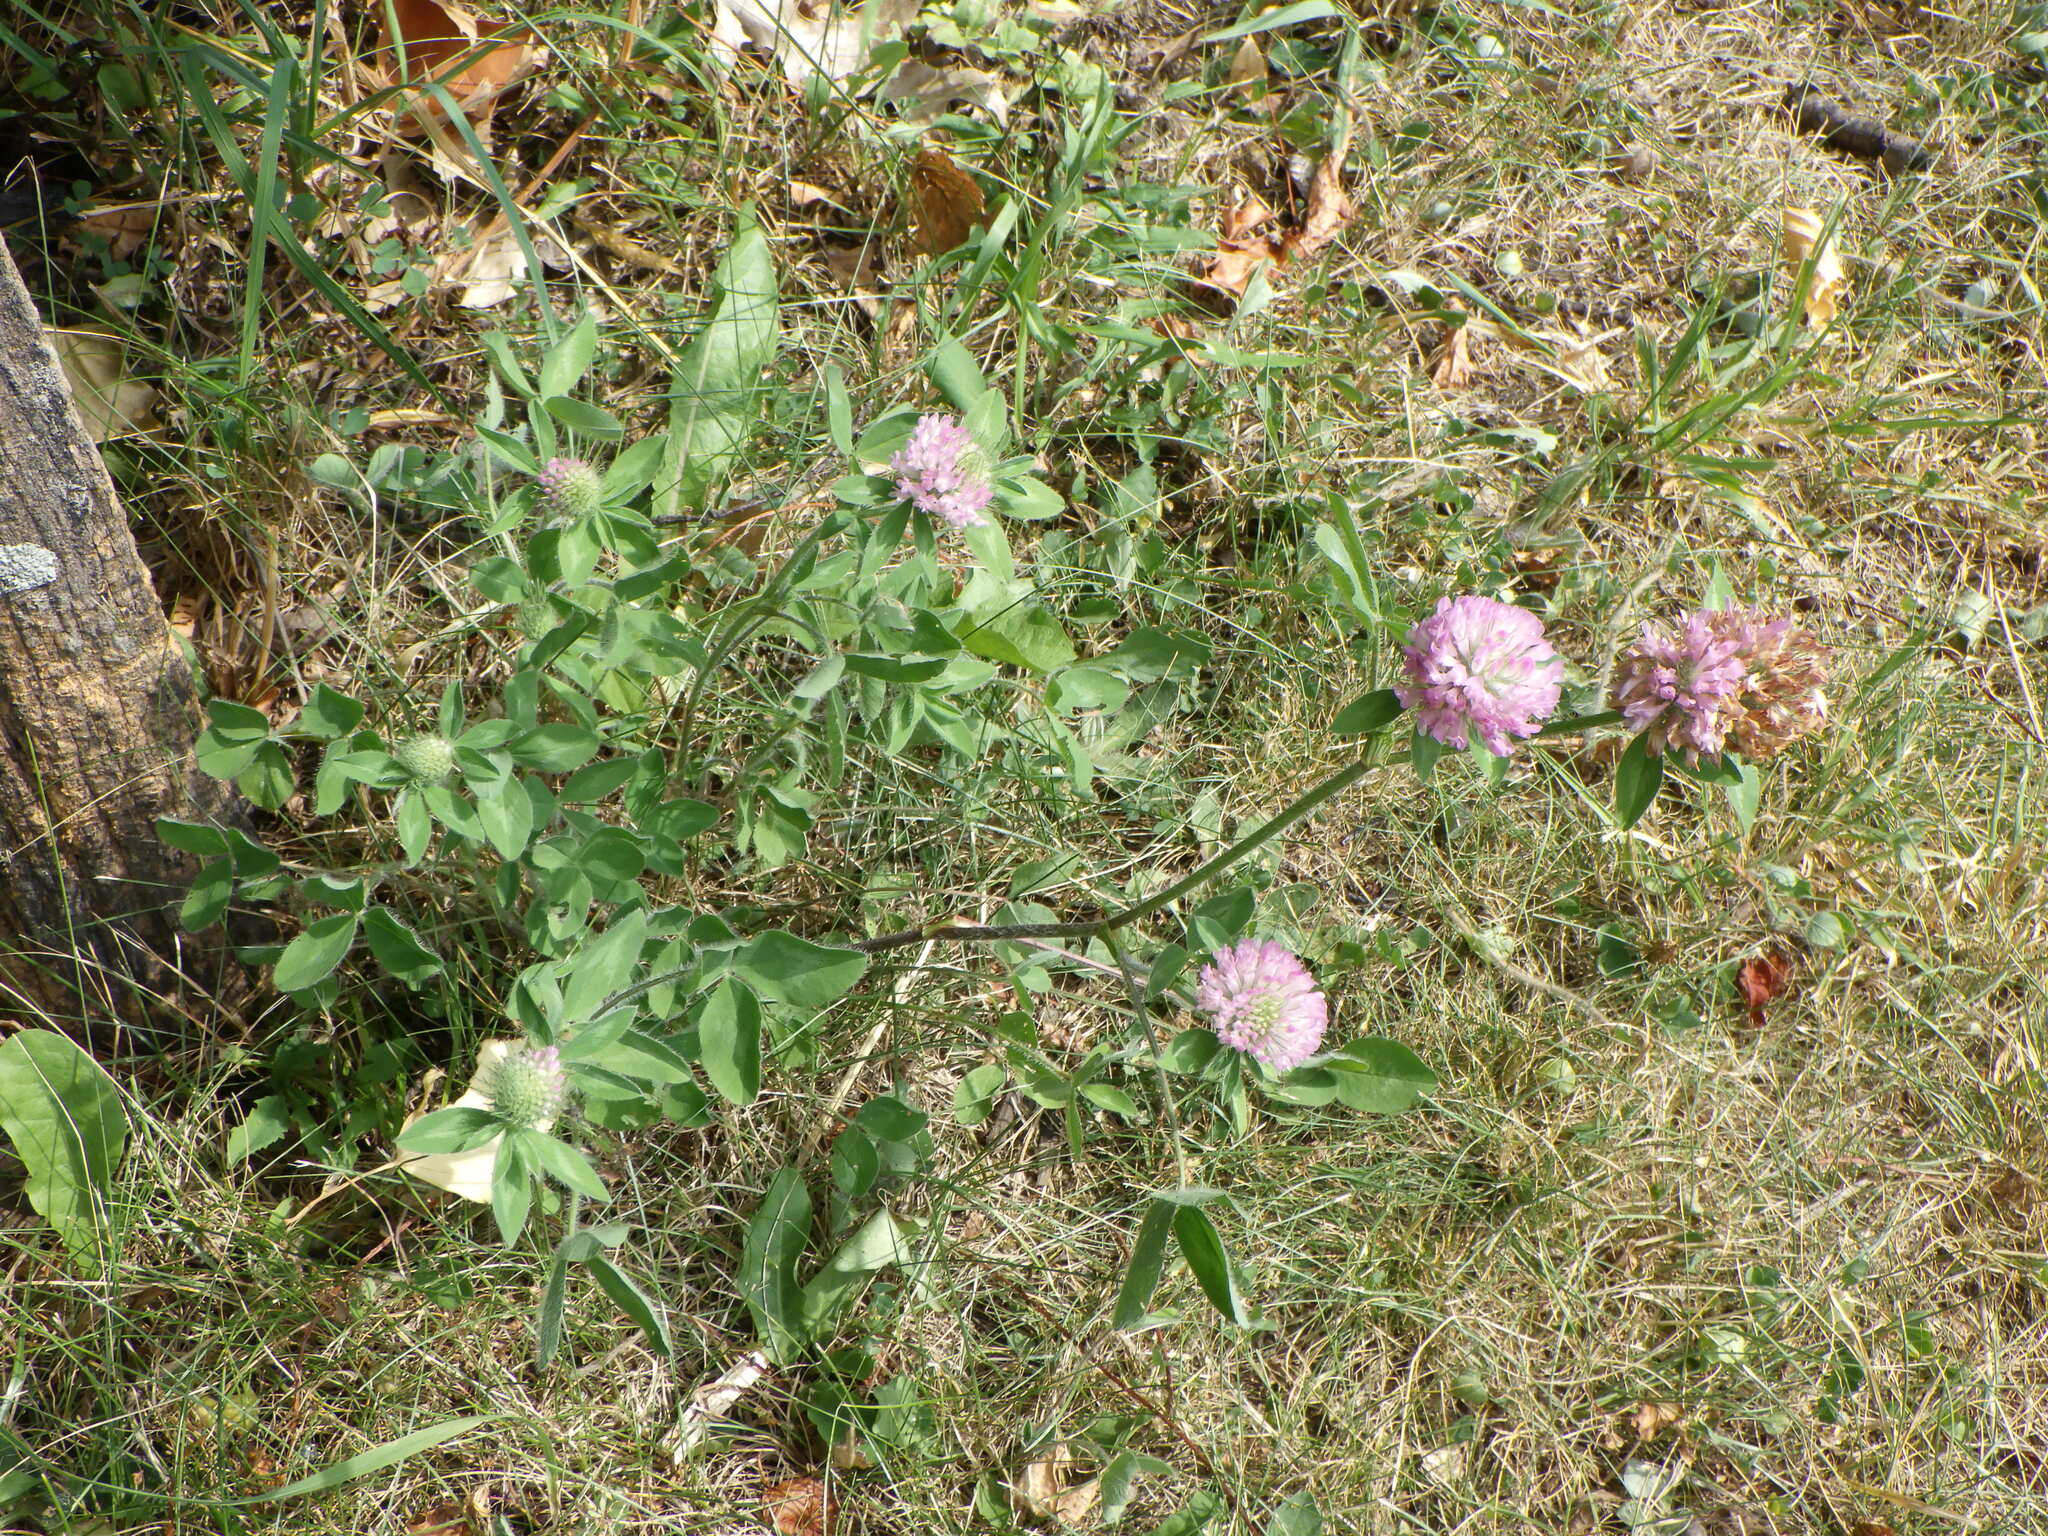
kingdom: Plantae
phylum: Tracheophyta
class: Magnoliopsida
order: Fabales
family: Fabaceae
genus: Trifolium
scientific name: Trifolium pratense
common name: Red clover
